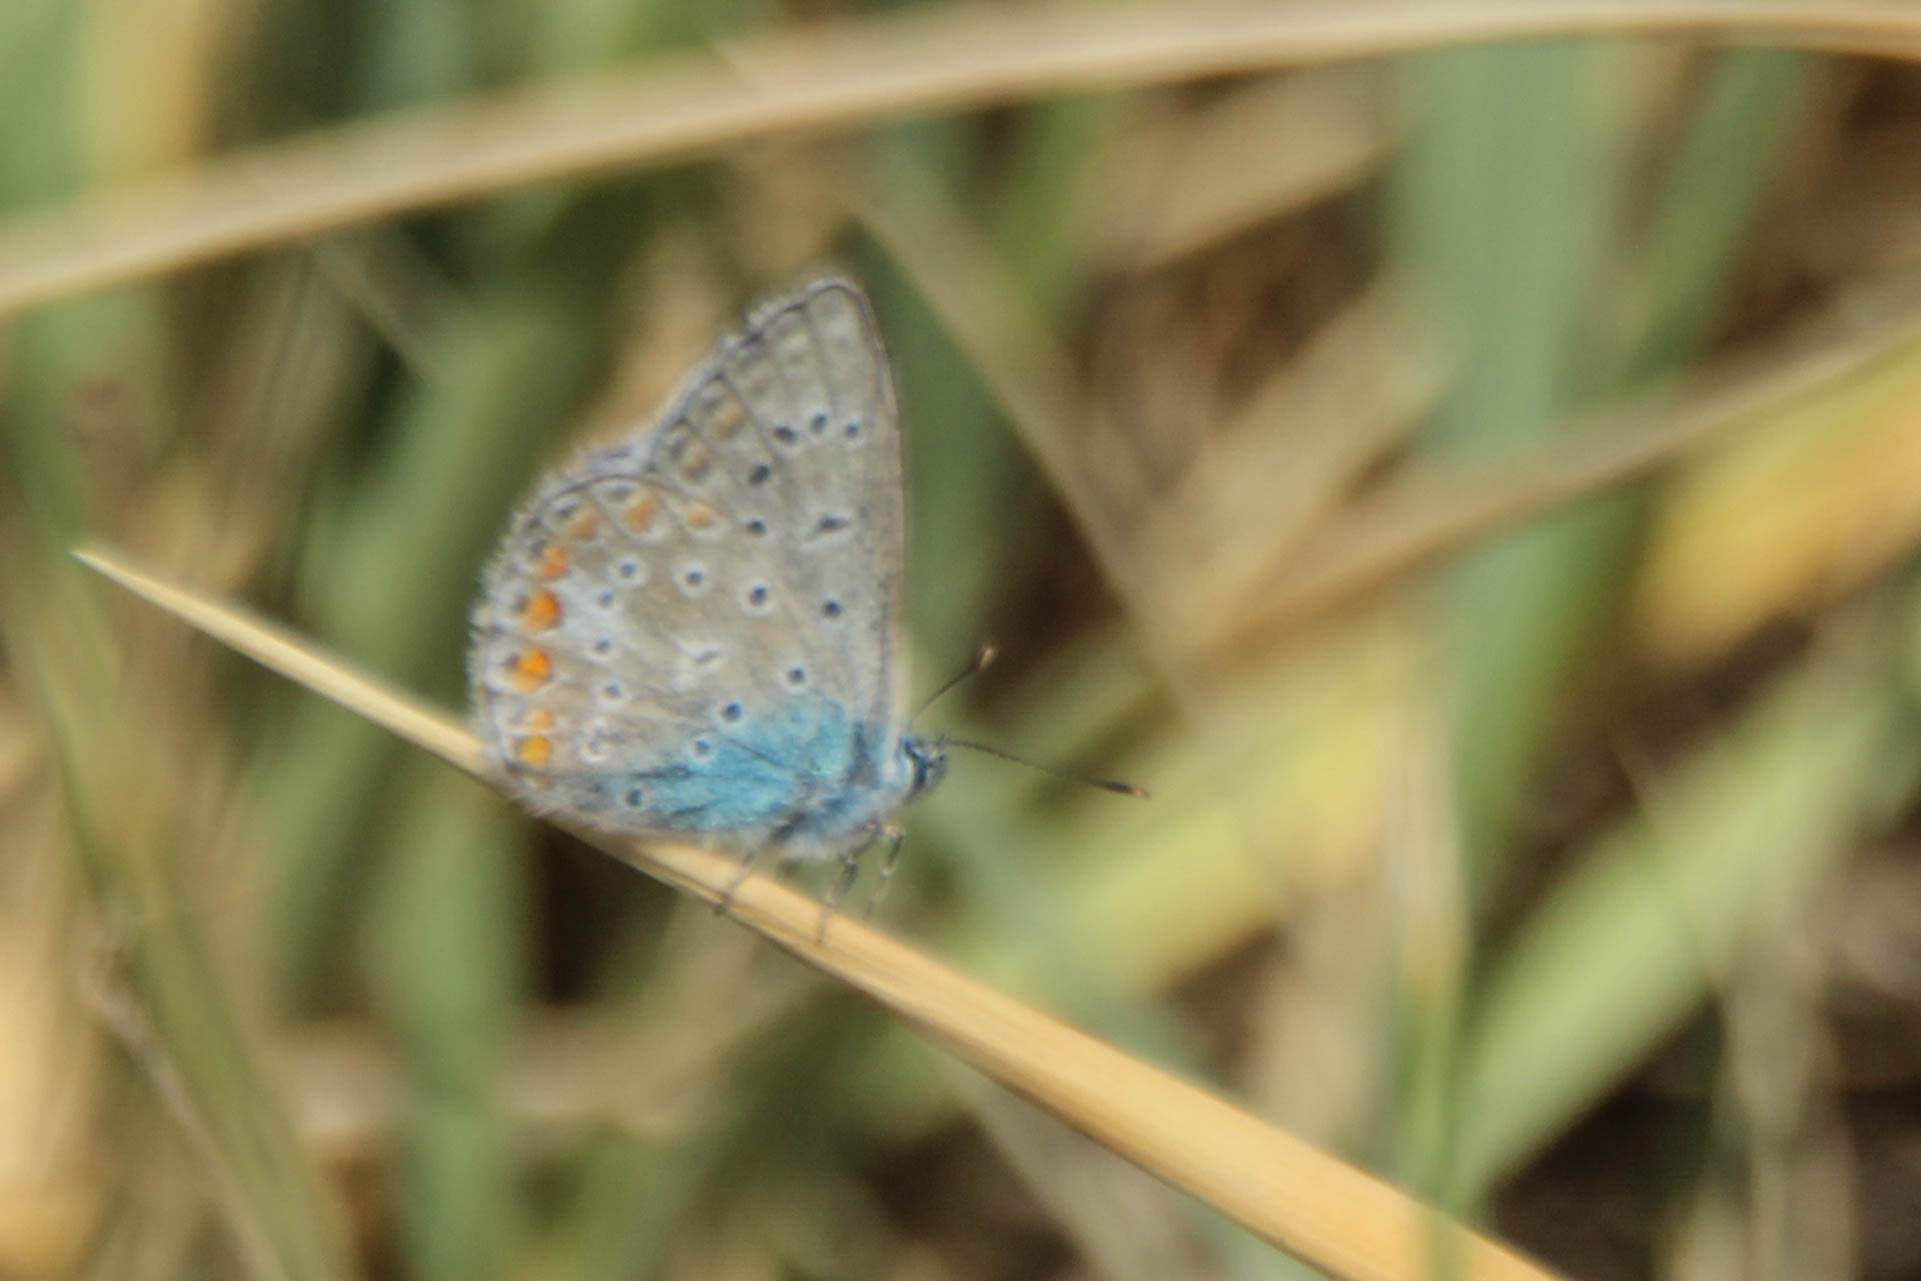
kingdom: Animalia
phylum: Arthropoda
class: Insecta
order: Lepidoptera
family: Lycaenidae
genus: Polyommatus
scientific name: Polyommatus icarus
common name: Common blue
